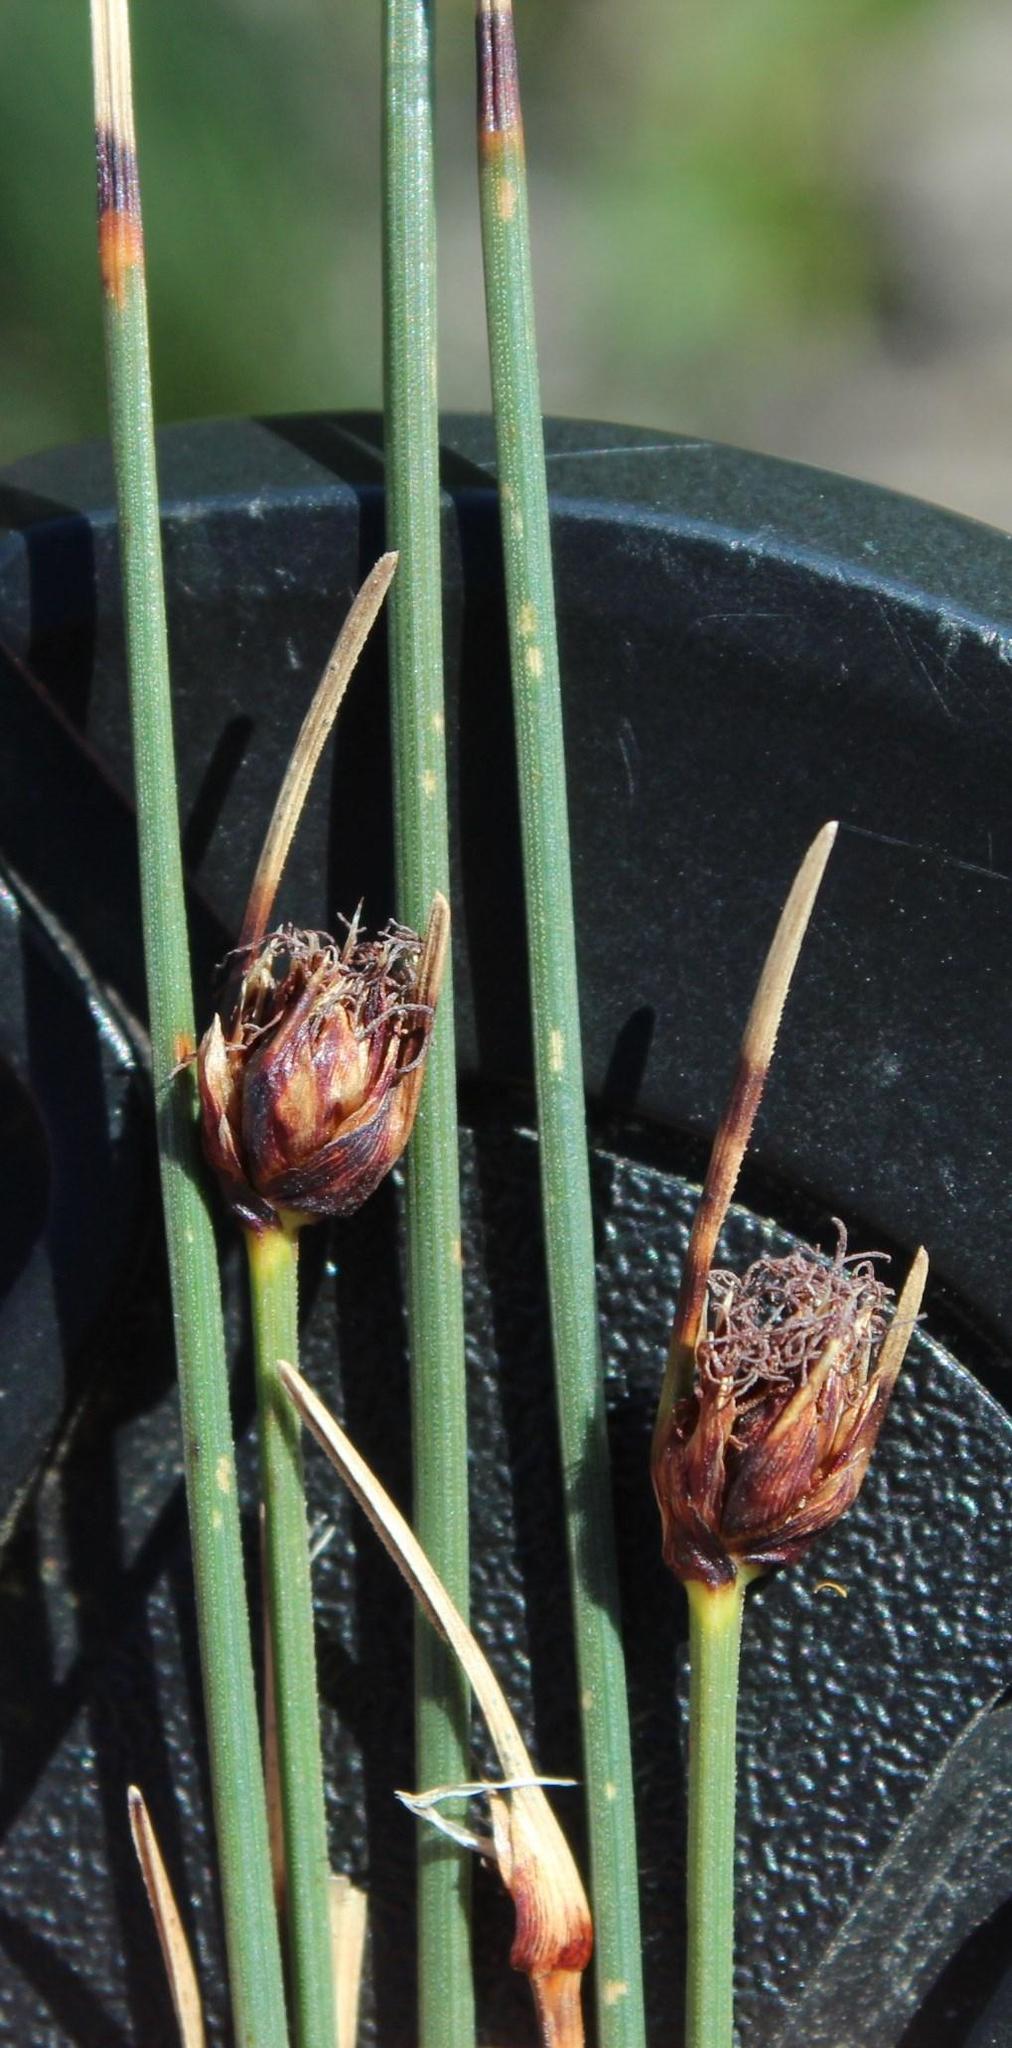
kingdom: Plantae
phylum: Tracheophyta
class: Liliopsida
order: Poales
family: Cyperaceae
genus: Ficinia
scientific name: Ficinia indica
